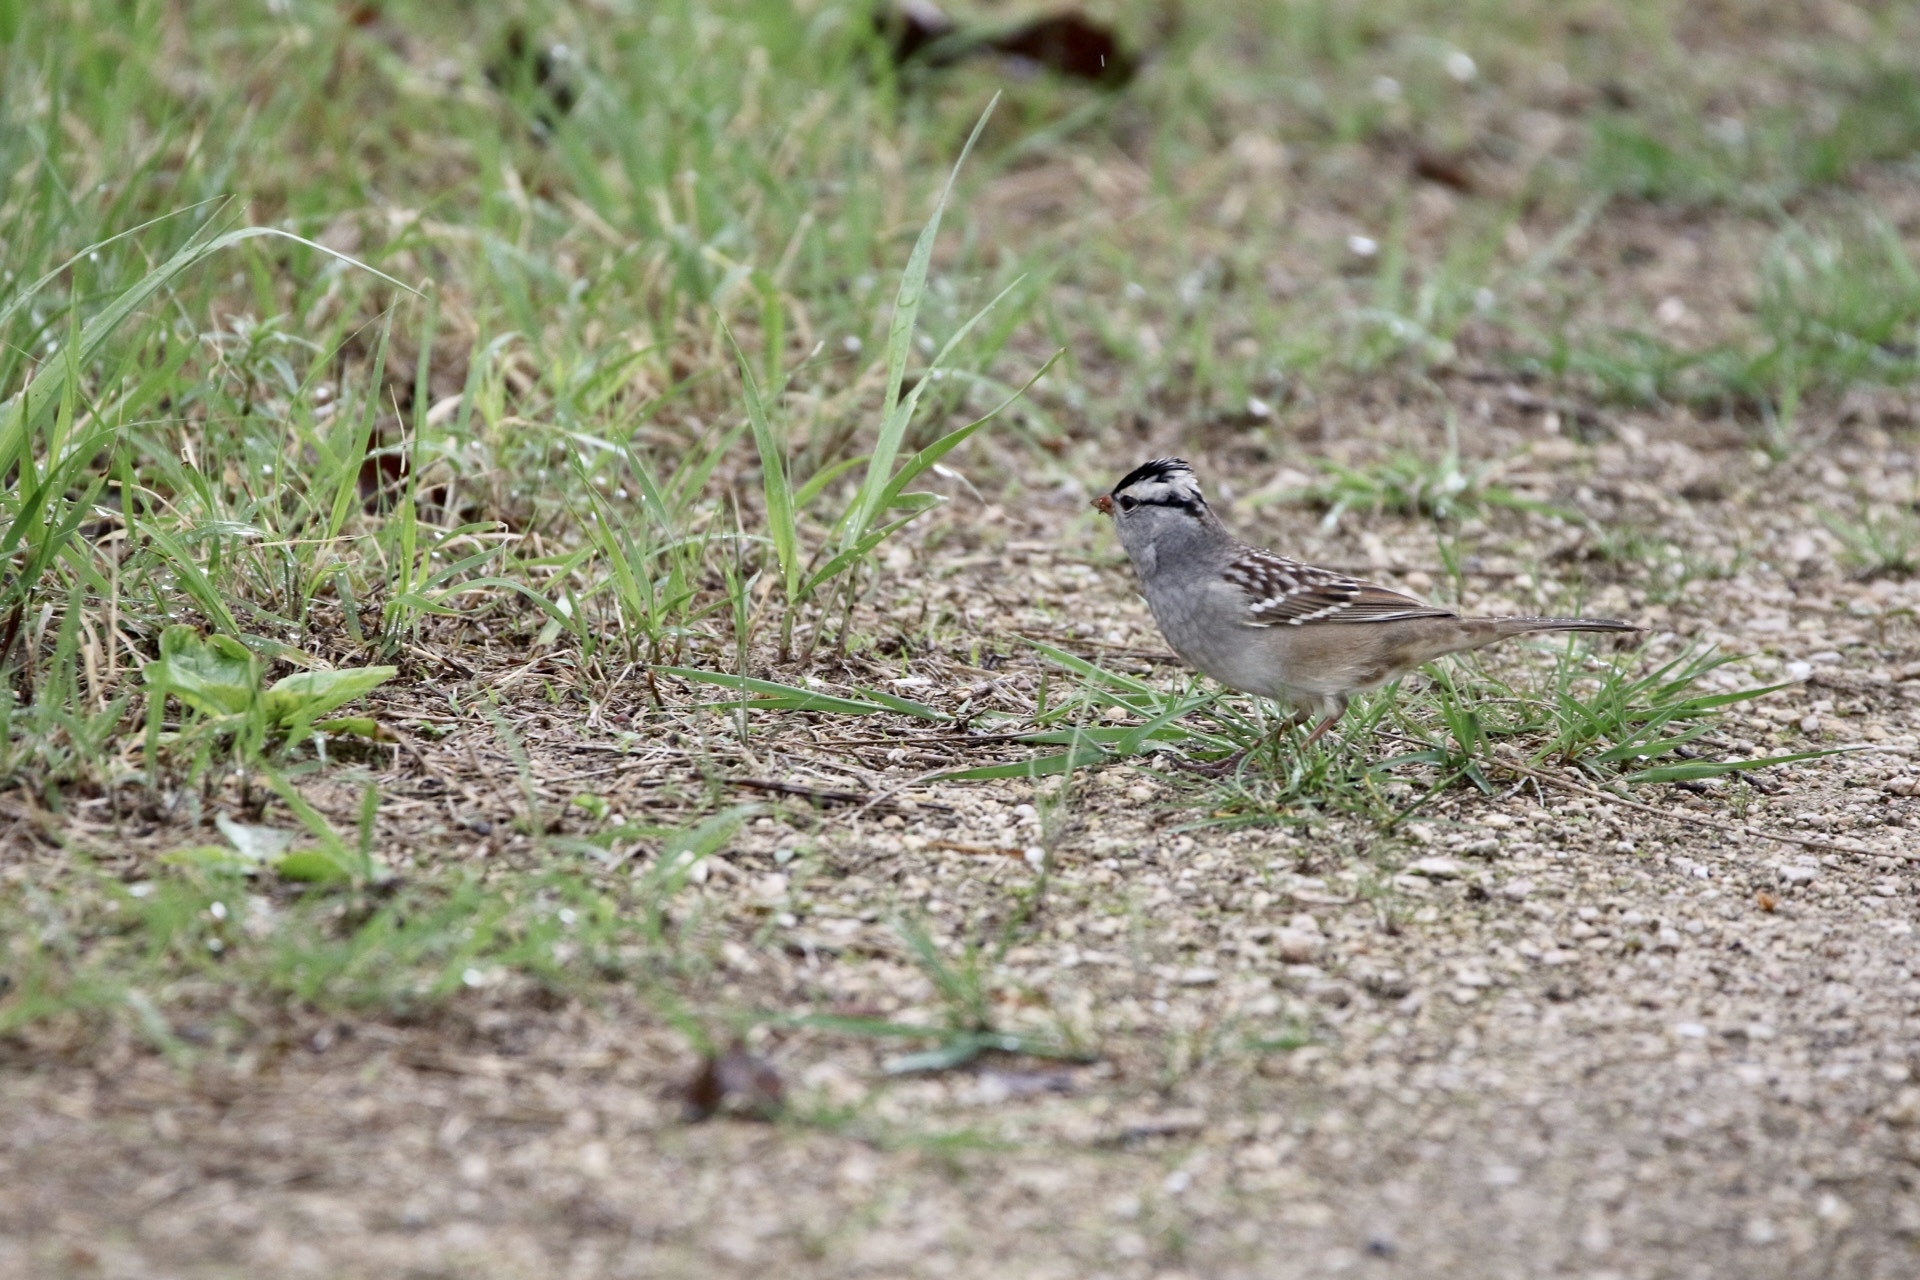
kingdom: Animalia
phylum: Chordata
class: Aves
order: Passeriformes
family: Passerellidae
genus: Zonotrichia
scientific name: Zonotrichia leucophrys
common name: White-crowned sparrow
